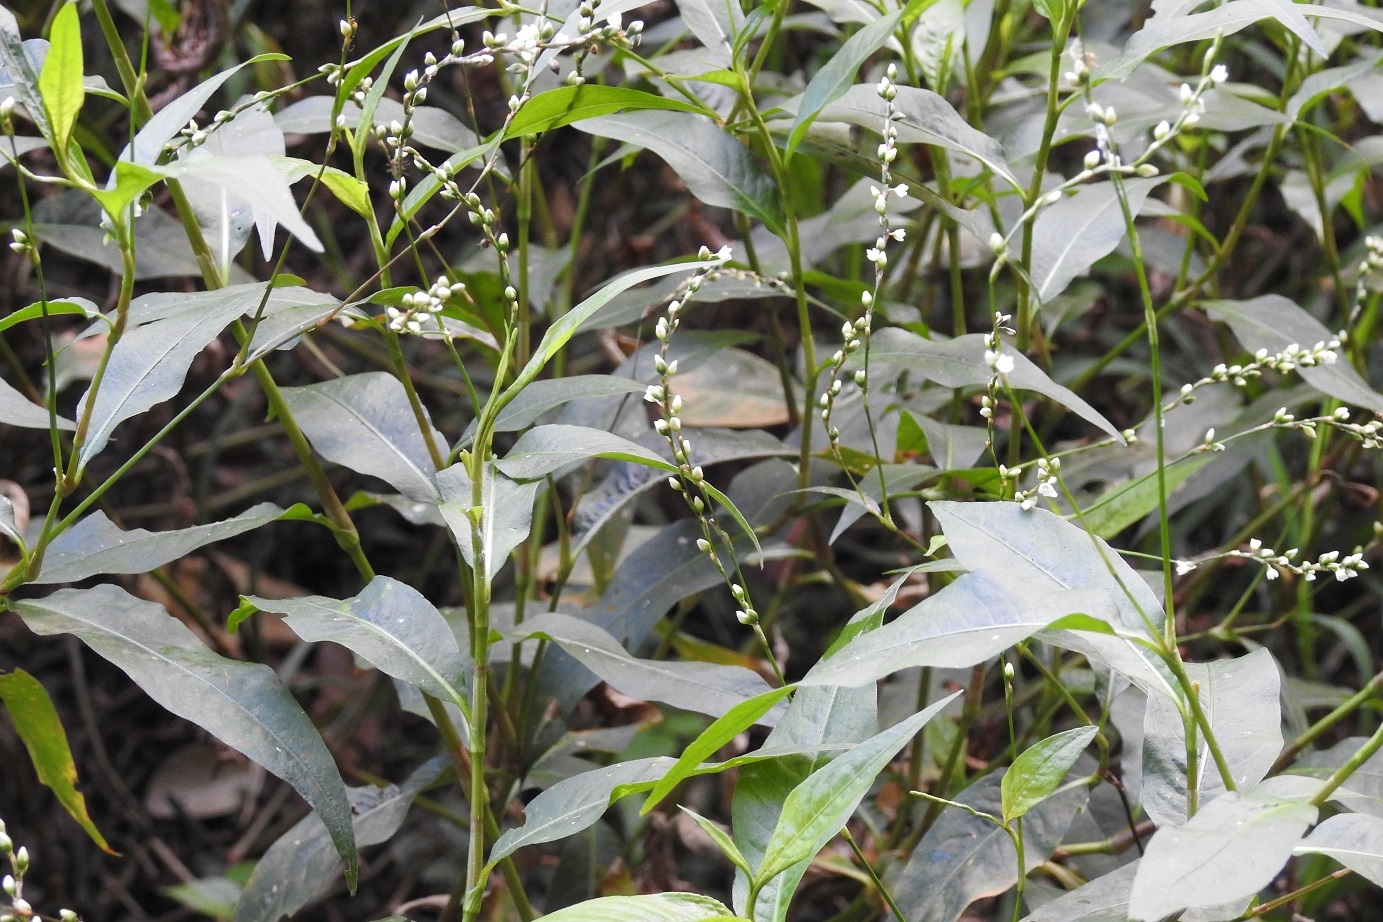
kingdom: Plantae
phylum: Tracheophyta
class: Magnoliopsida
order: Caryophyllales
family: Polygonaceae
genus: Persicaria
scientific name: Persicaria hydropiperoides
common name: Swamp smartweed
